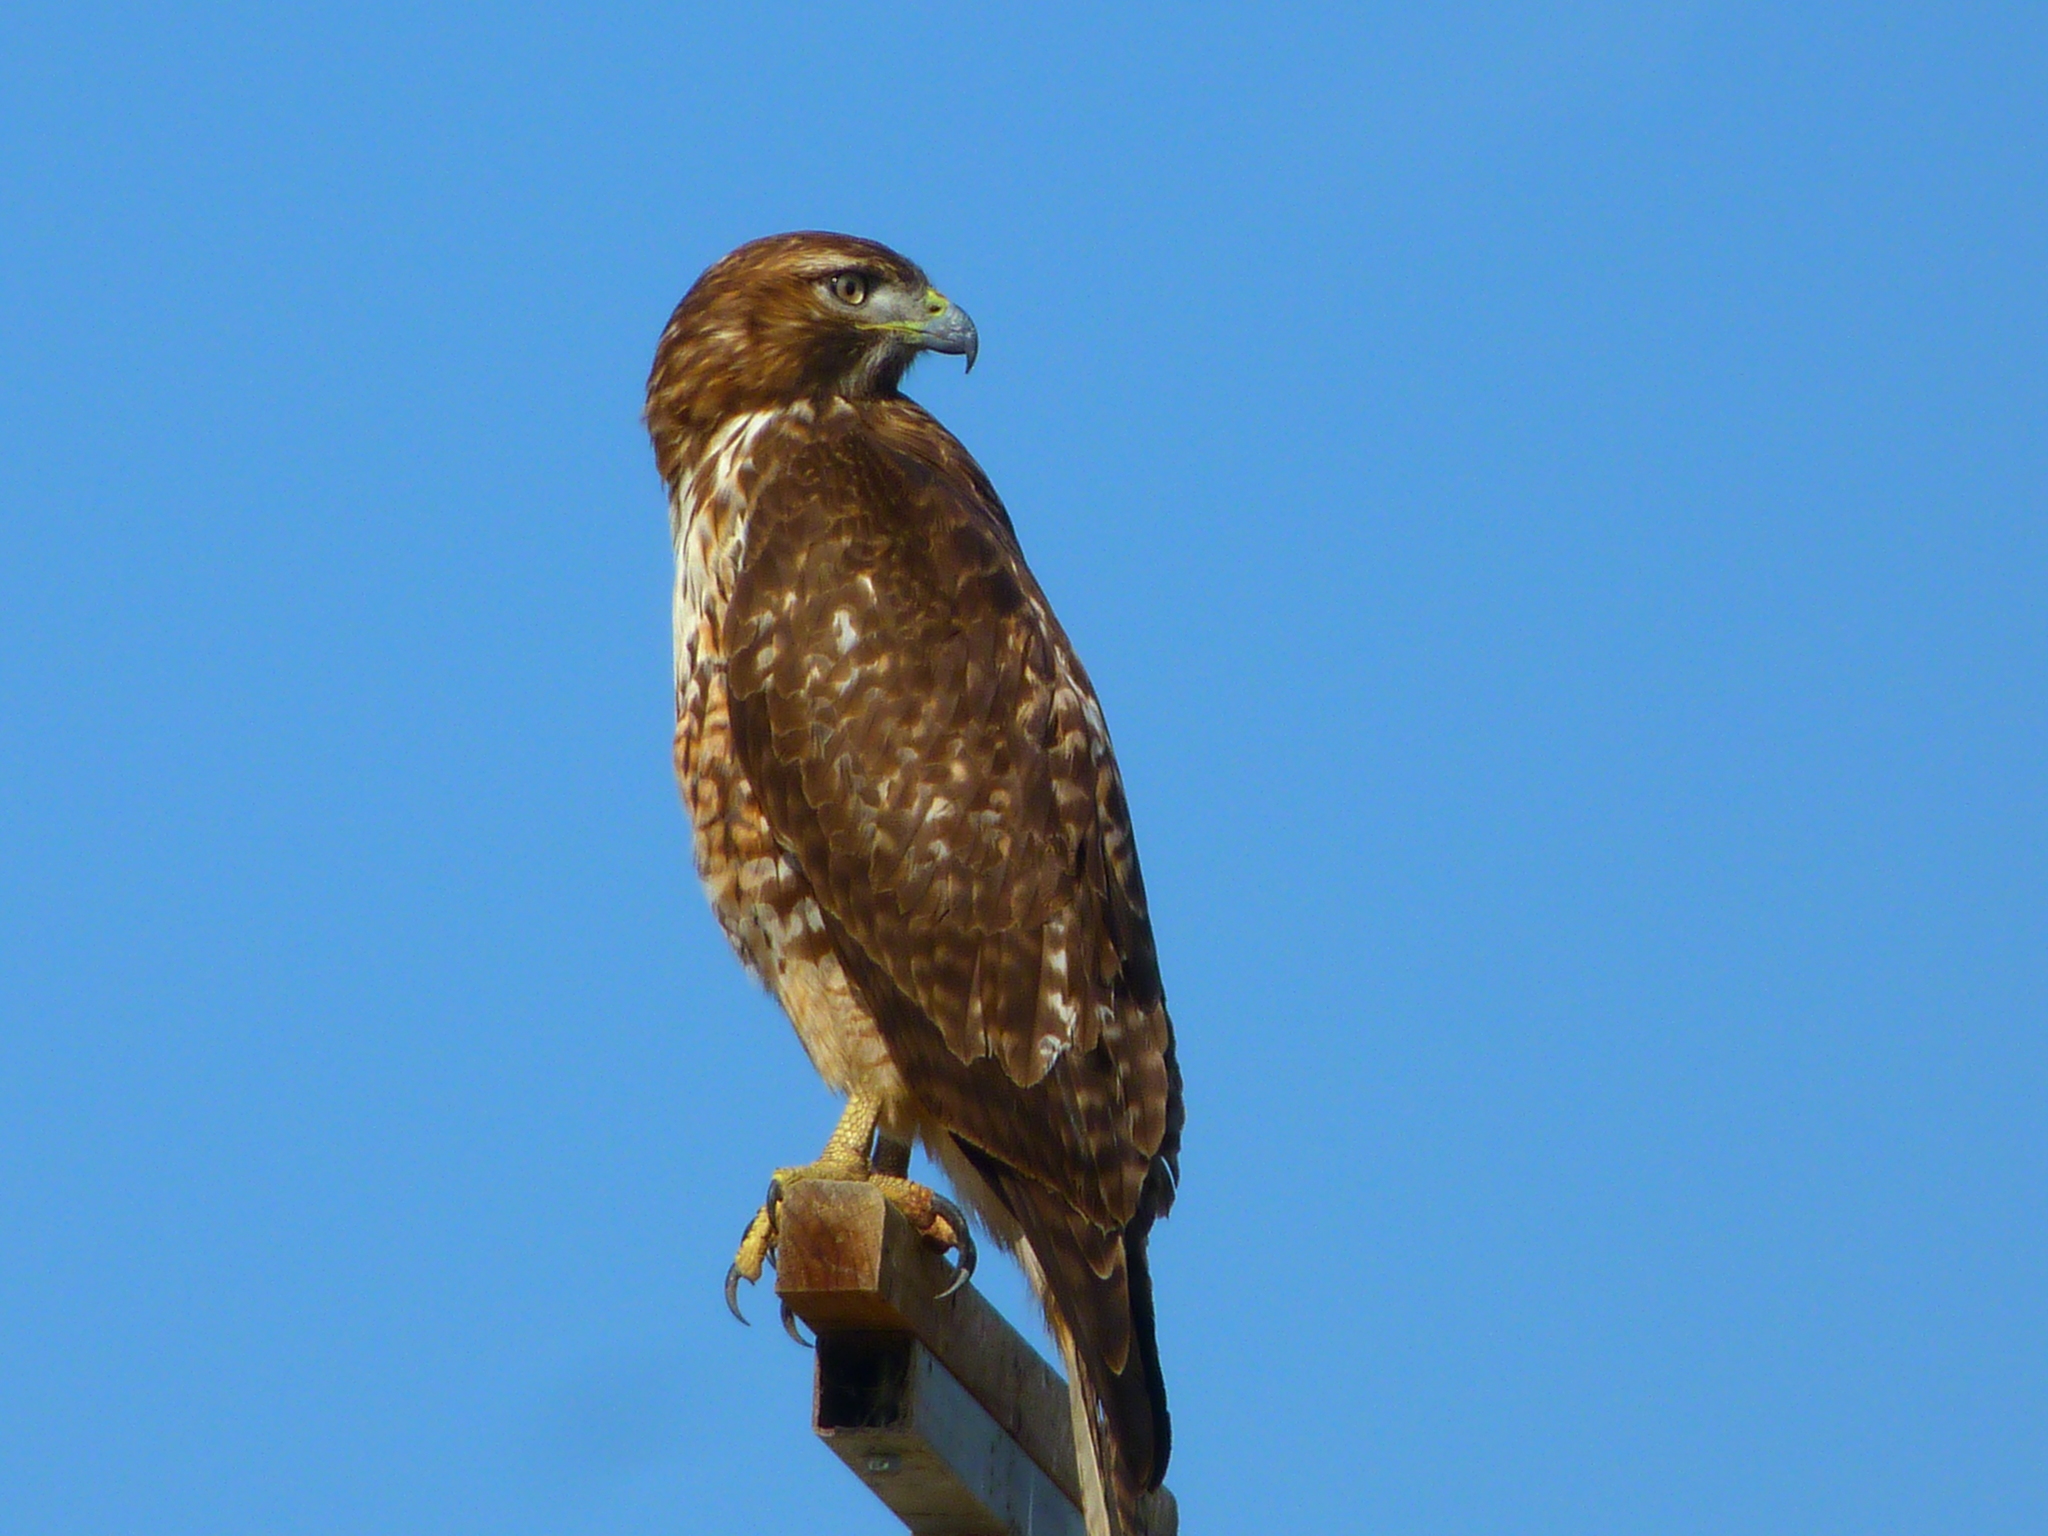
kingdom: Animalia
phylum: Chordata
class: Aves
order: Accipitriformes
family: Accipitridae
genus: Buteo
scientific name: Buteo jamaicensis
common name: Red-tailed hawk
